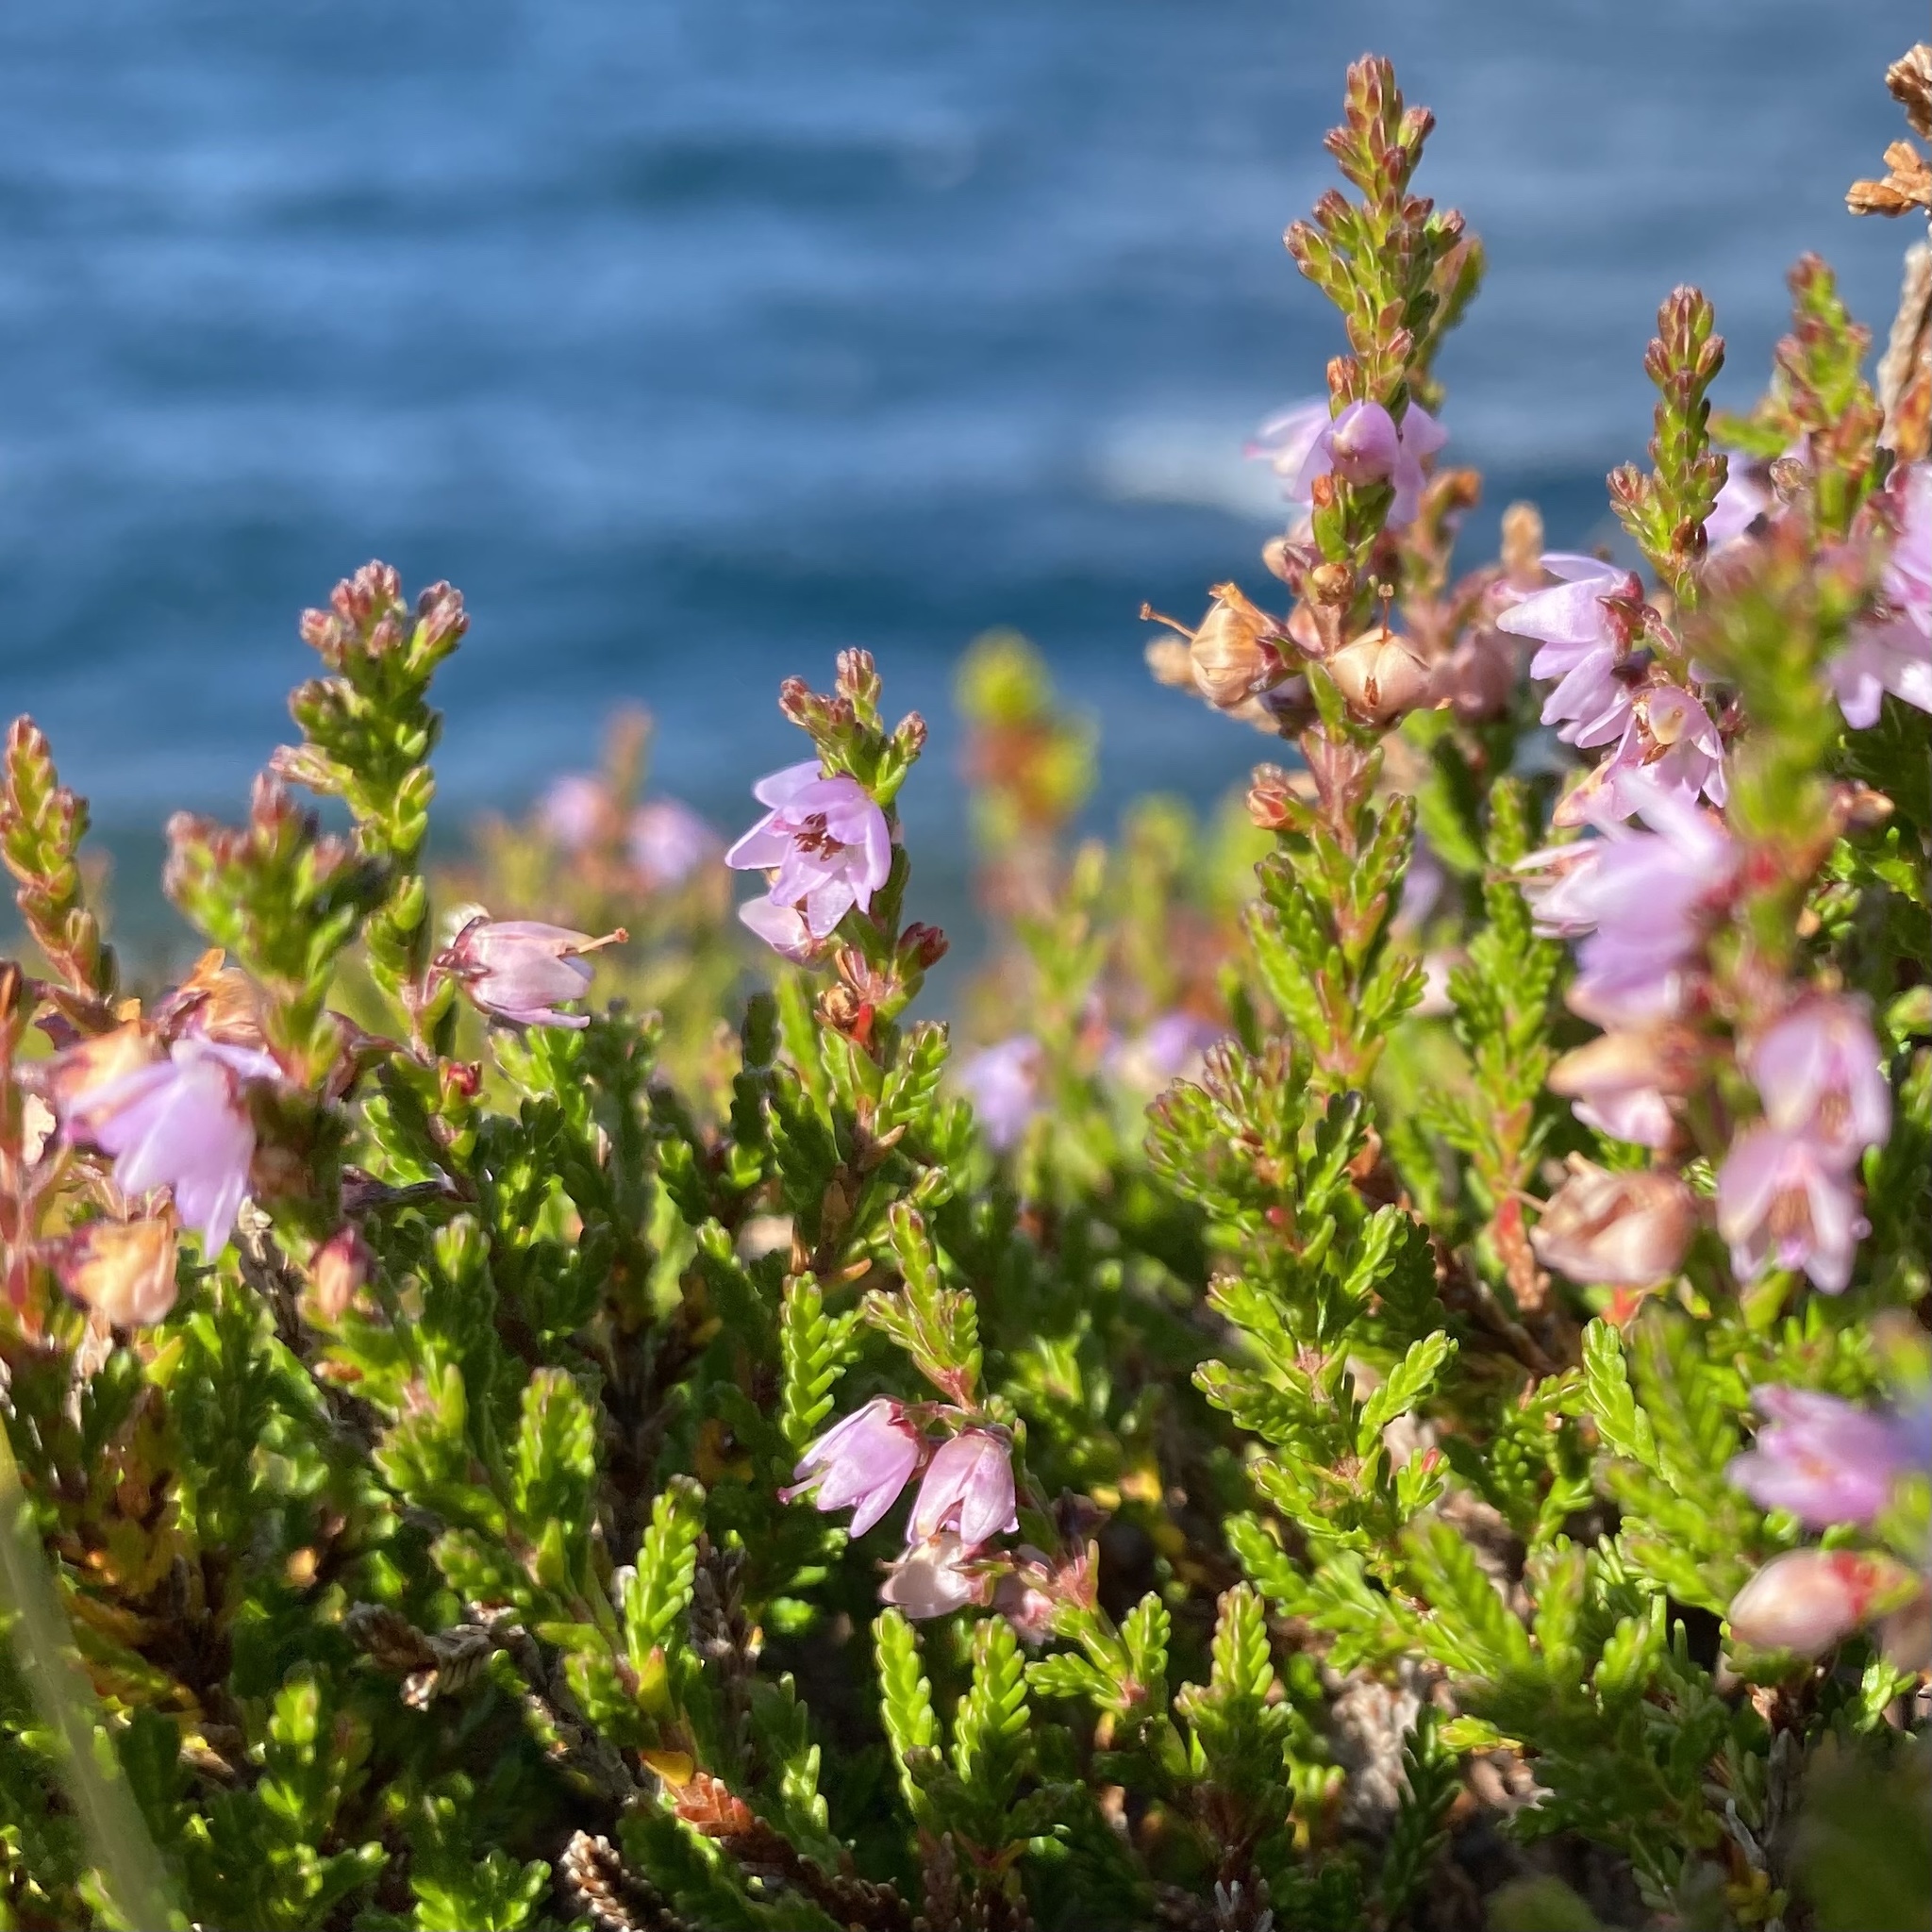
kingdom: Plantae
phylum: Tracheophyta
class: Magnoliopsida
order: Ericales
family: Ericaceae
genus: Calluna
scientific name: Calluna vulgaris
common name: Heather
